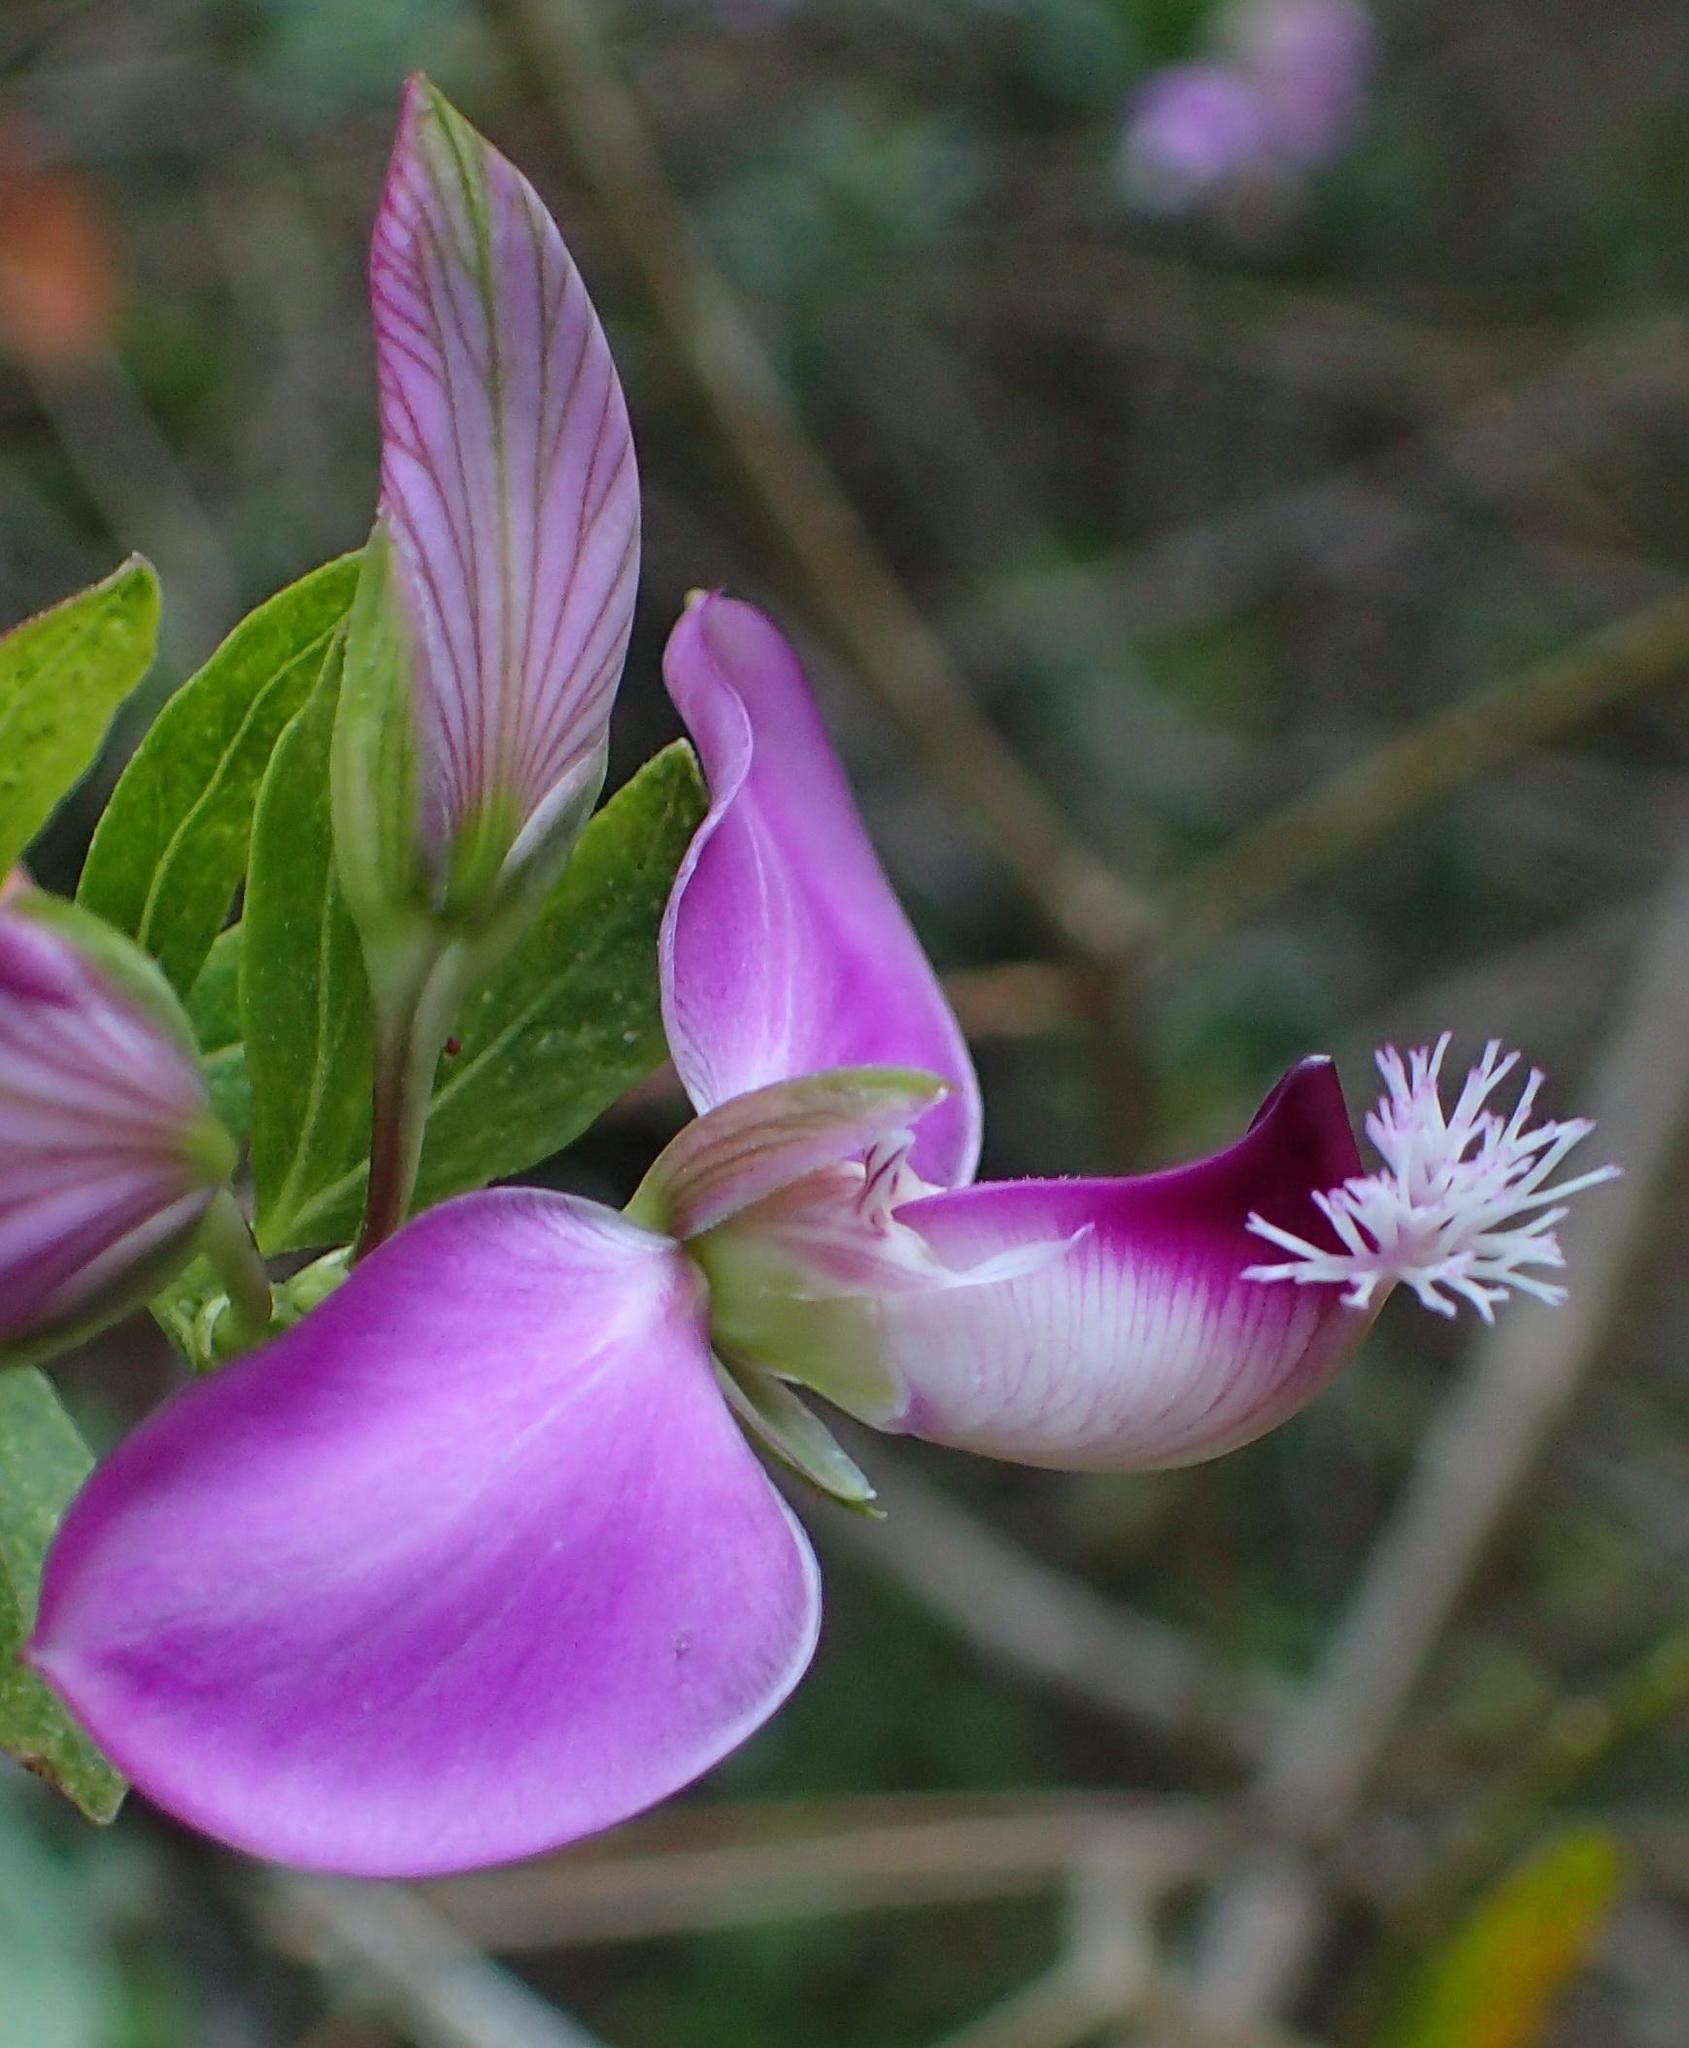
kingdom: Plantae
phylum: Tracheophyta
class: Magnoliopsida
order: Fabales
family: Polygalaceae
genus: Polygala
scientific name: Polygala myrtifolia
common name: Myrtle-leaf milkwort
